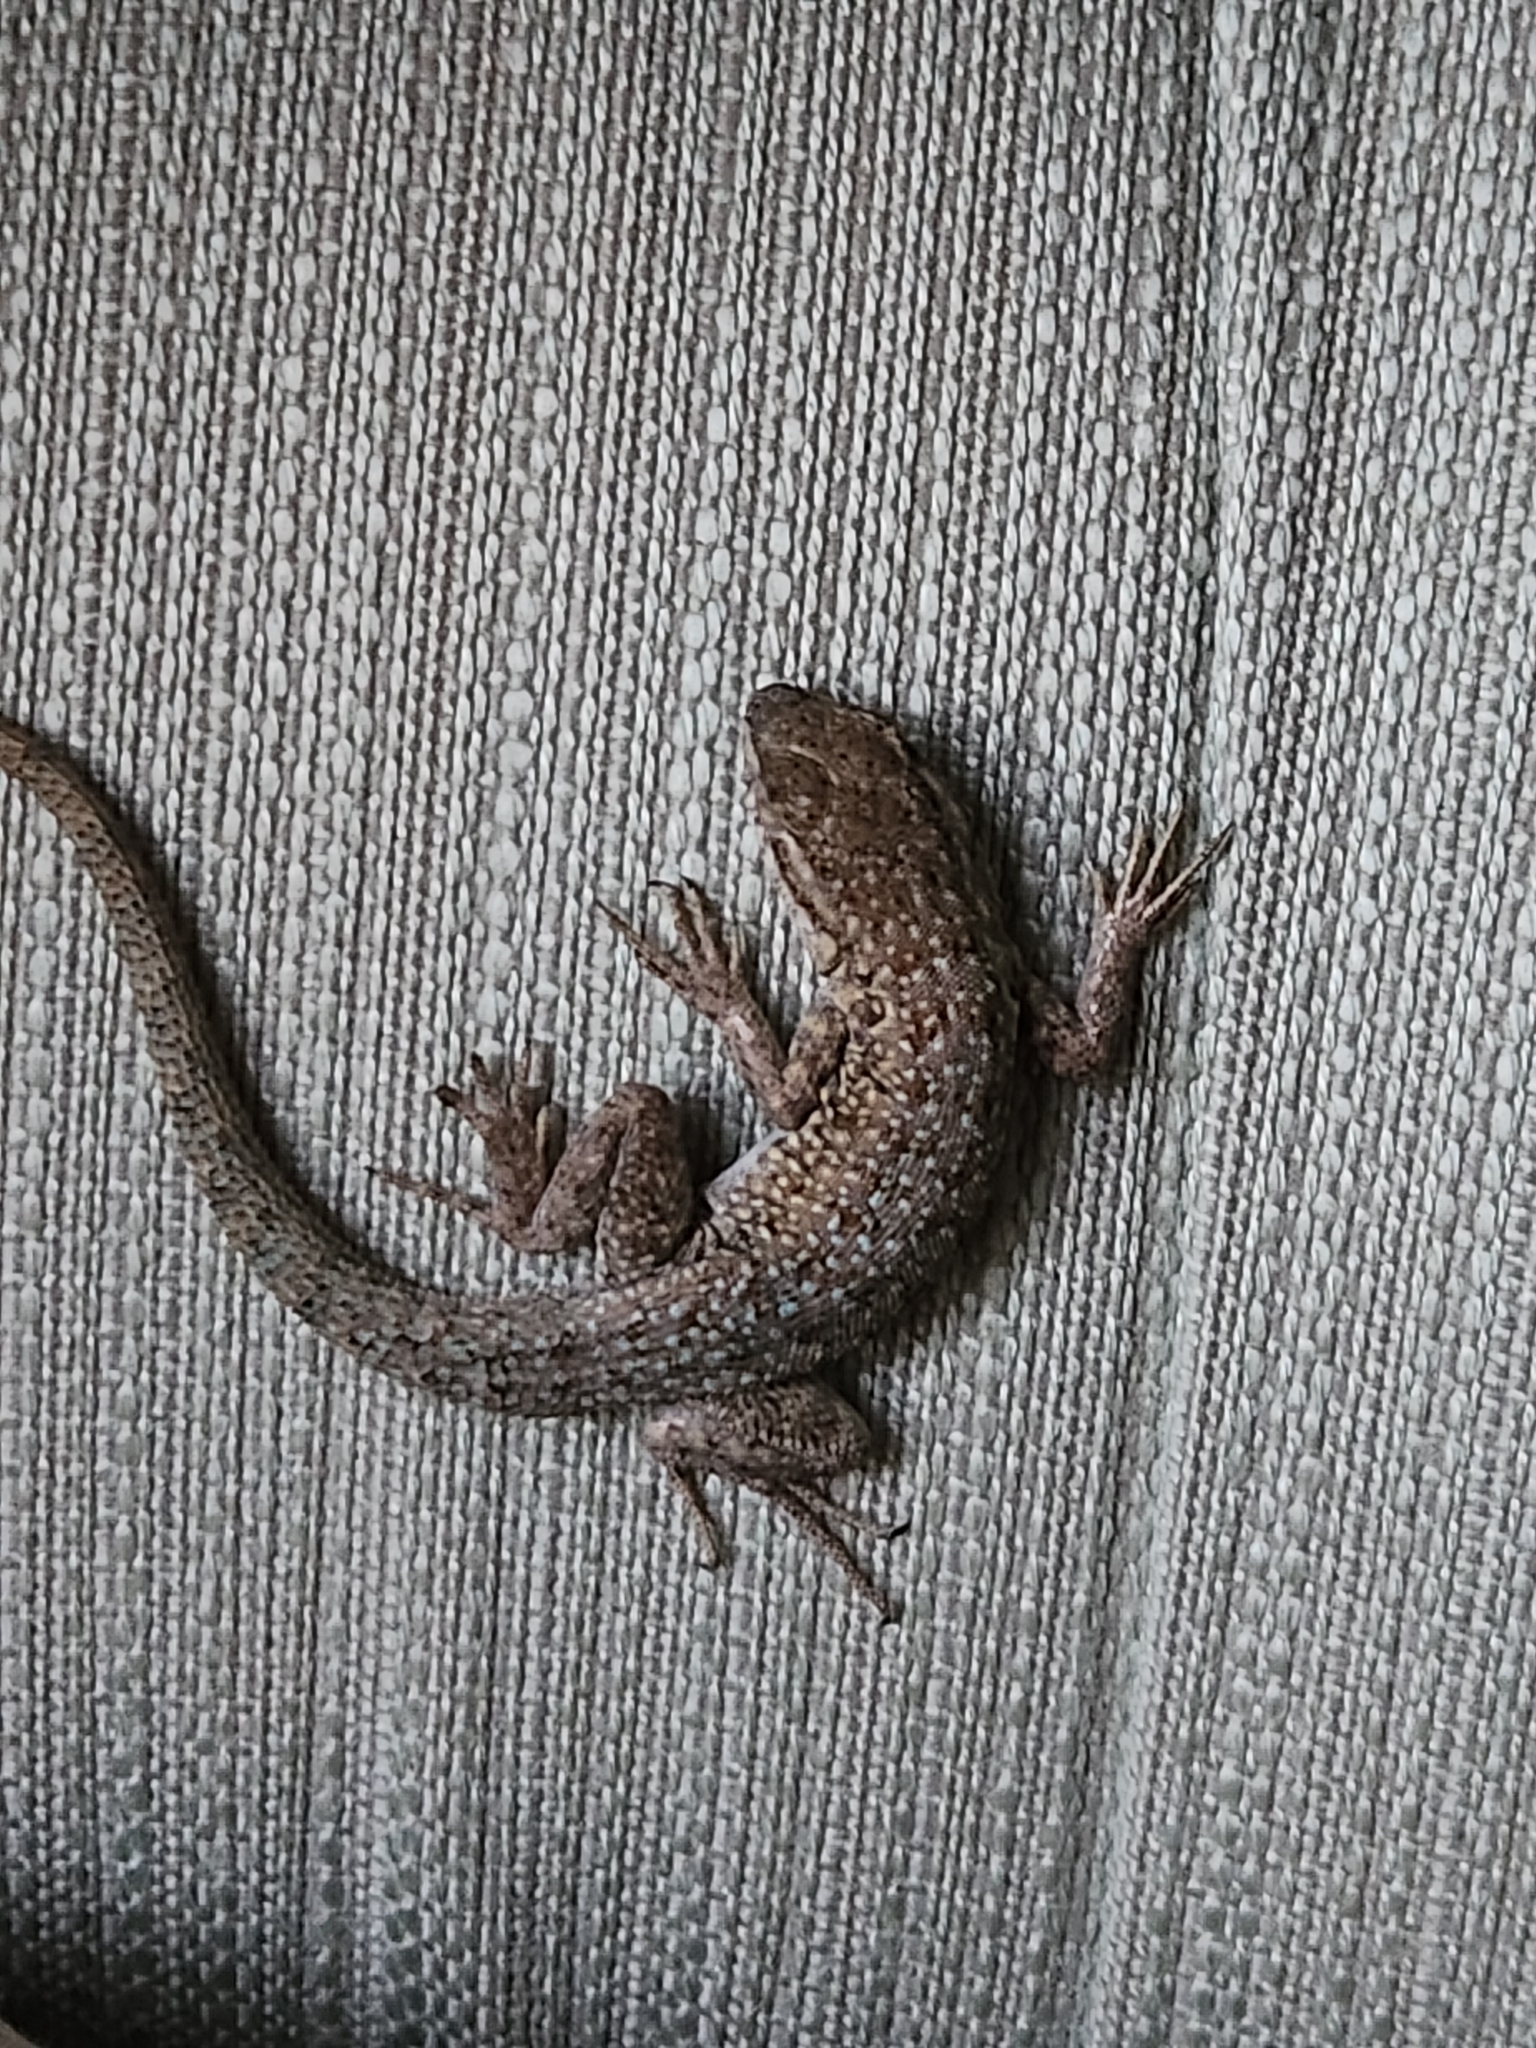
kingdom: Animalia
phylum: Chordata
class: Squamata
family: Phrynosomatidae
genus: Uta
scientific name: Uta stansburiana
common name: Side-blotched lizard
